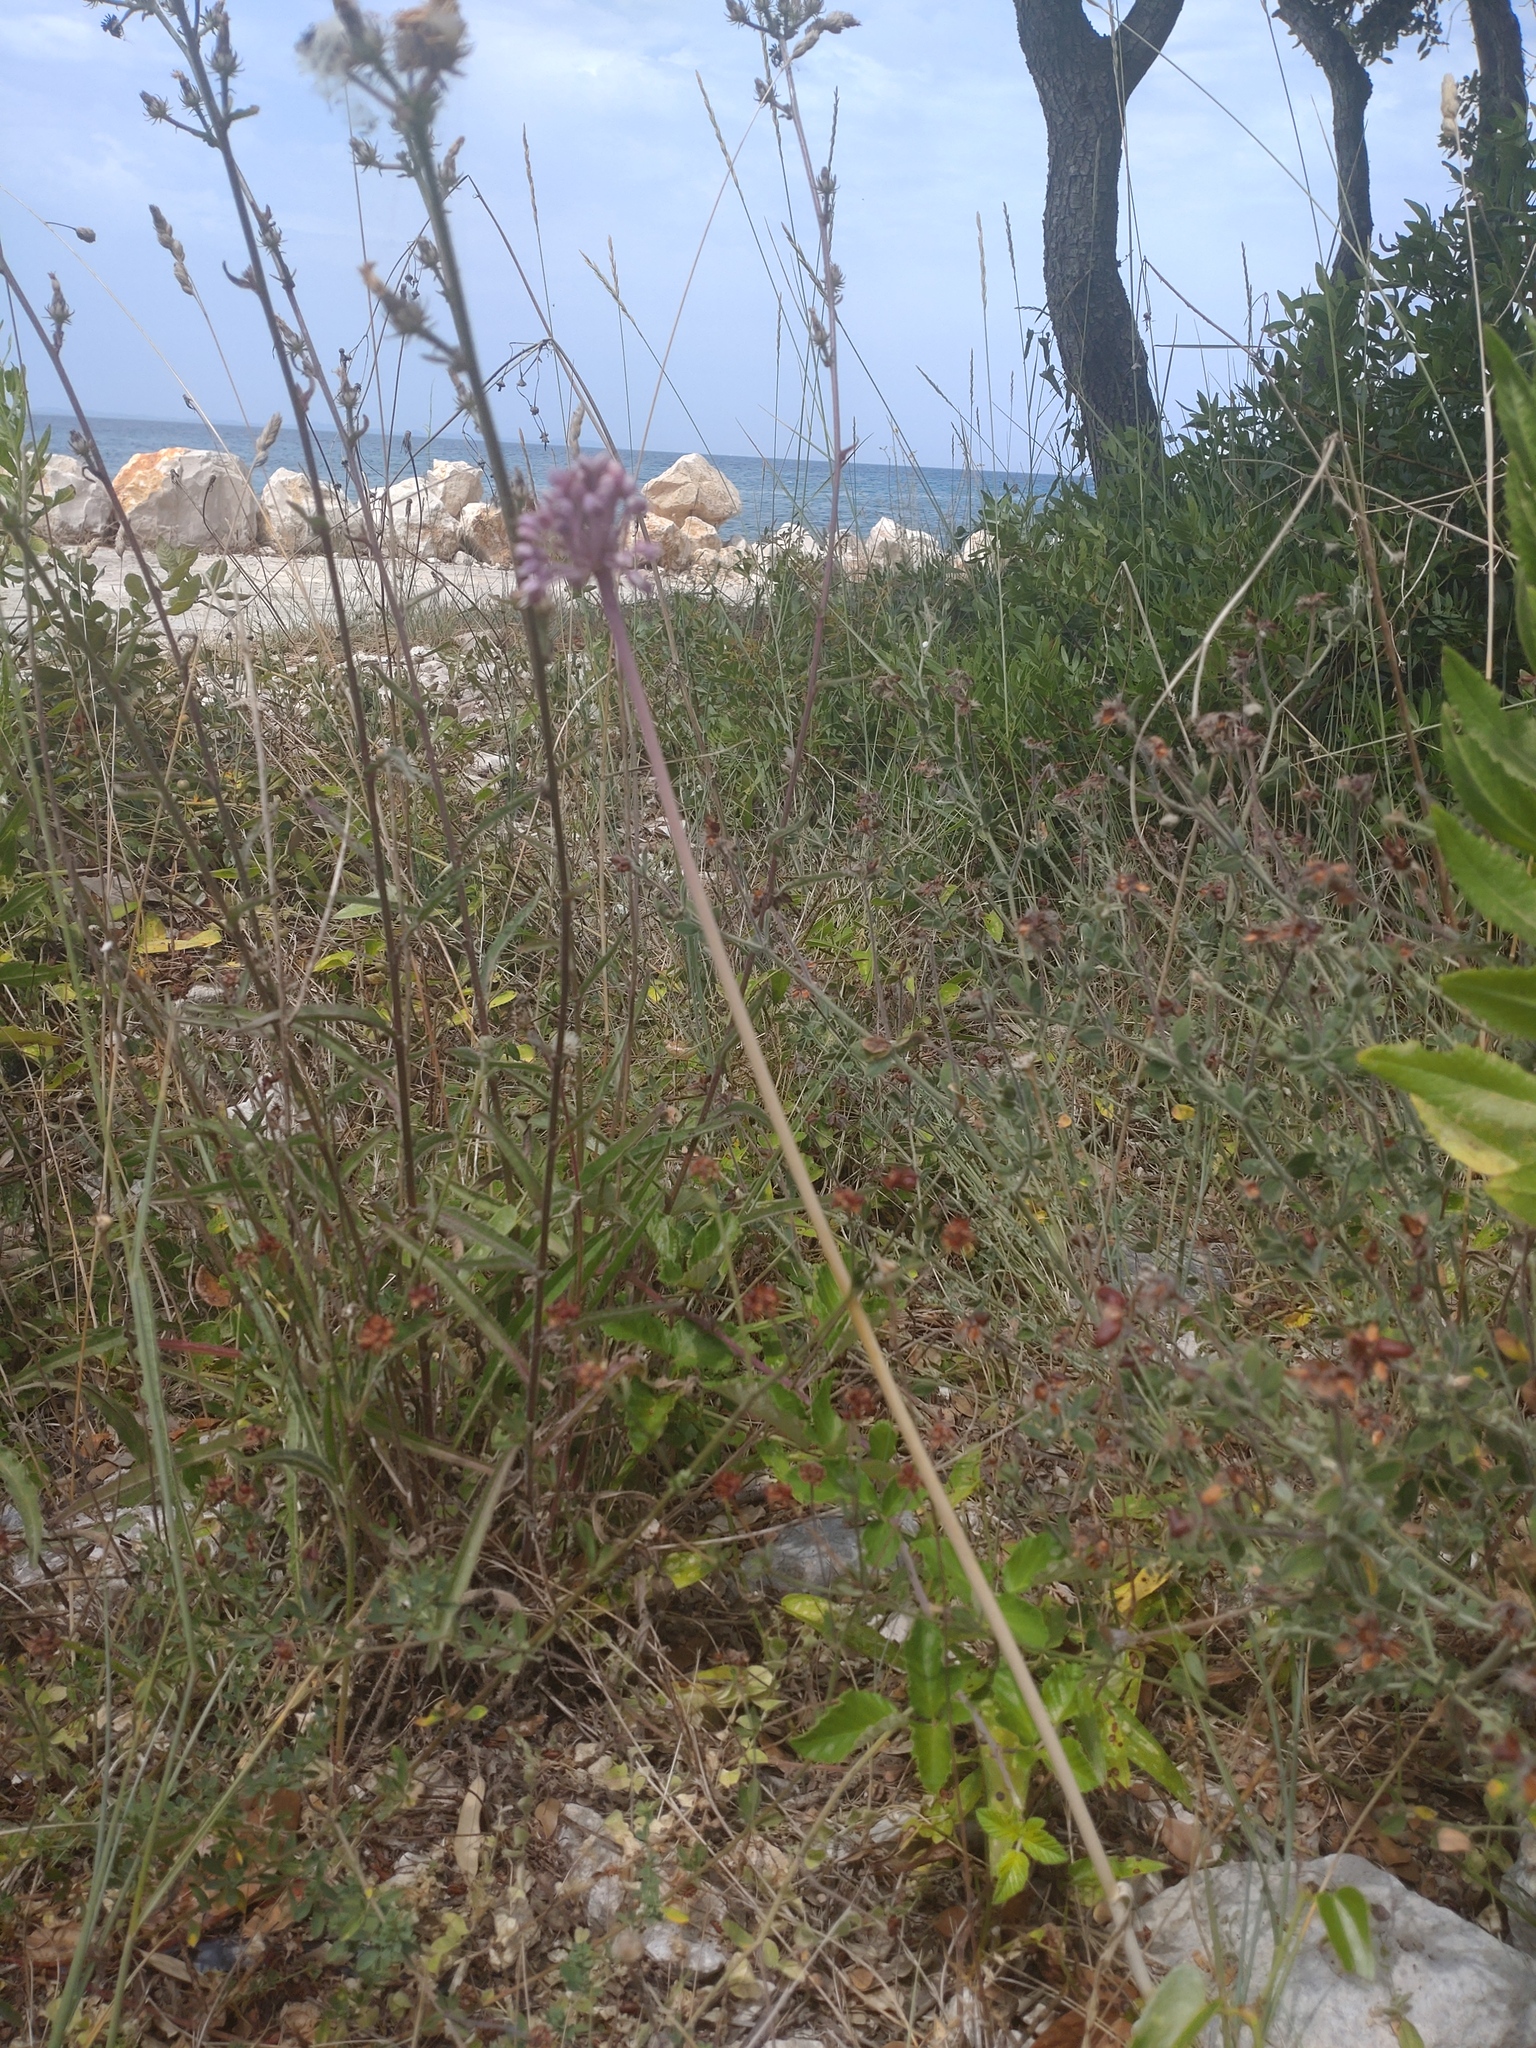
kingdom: Plantae
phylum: Tracheophyta
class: Liliopsida
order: Asparagales
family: Amaryllidaceae
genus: Allium
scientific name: Allium commutatum
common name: Sea garlic
